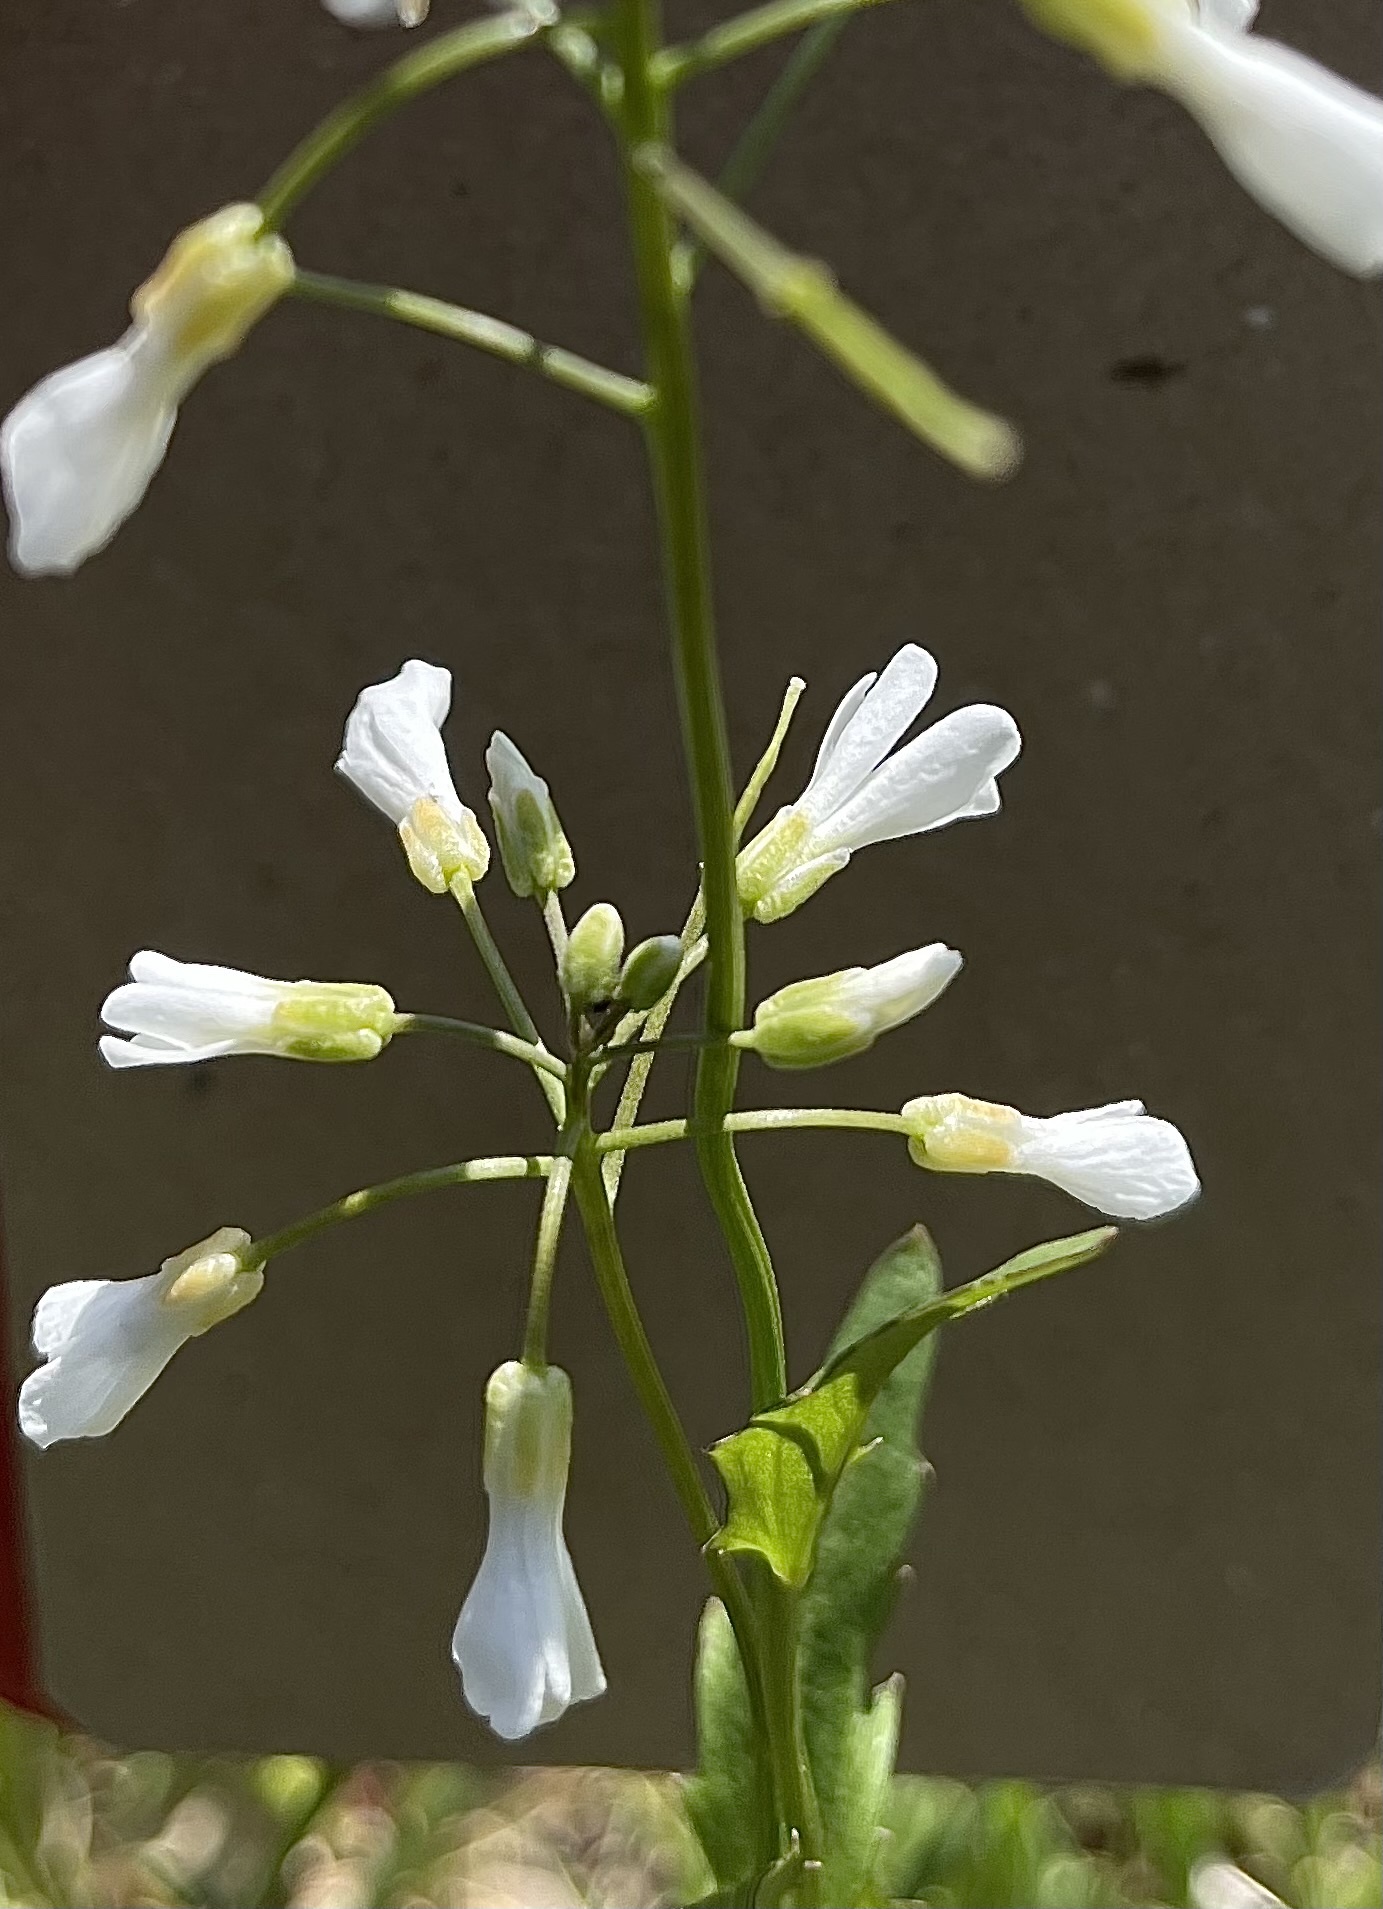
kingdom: Plantae
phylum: Tracheophyta
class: Magnoliopsida
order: Brassicales
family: Brassicaceae
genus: Cardamine
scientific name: Cardamine bulbosa
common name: Spring cress
